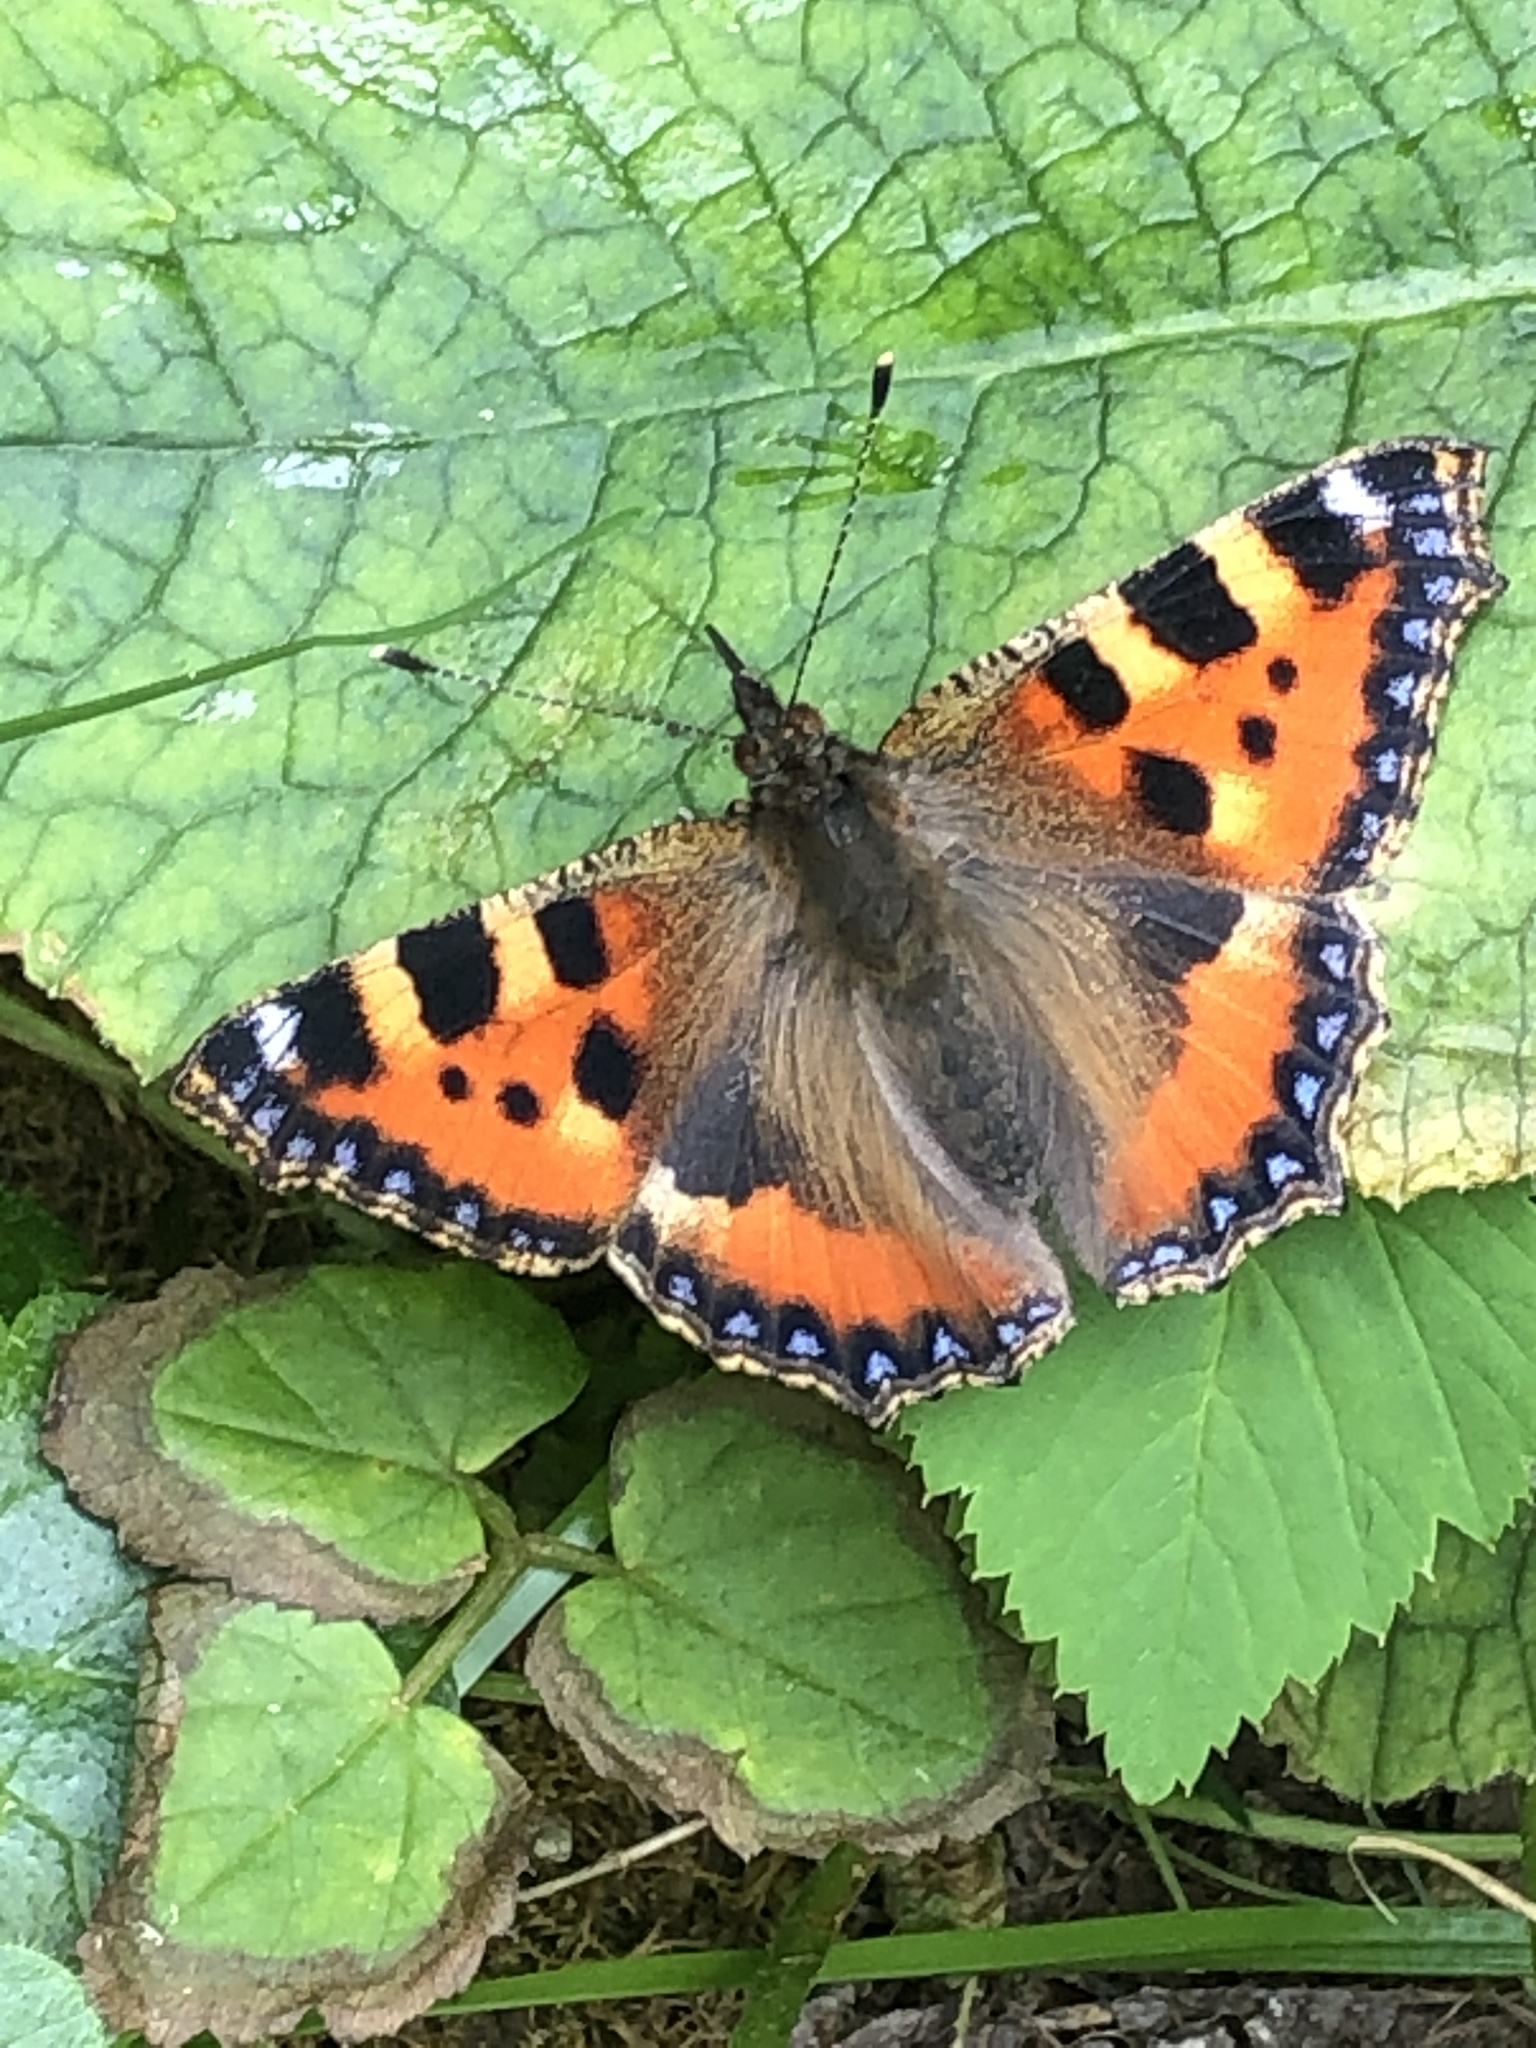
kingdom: Animalia
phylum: Arthropoda
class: Insecta
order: Lepidoptera
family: Nymphalidae
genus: Aglais
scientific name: Aglais urticae
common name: Small tortoiseshell
